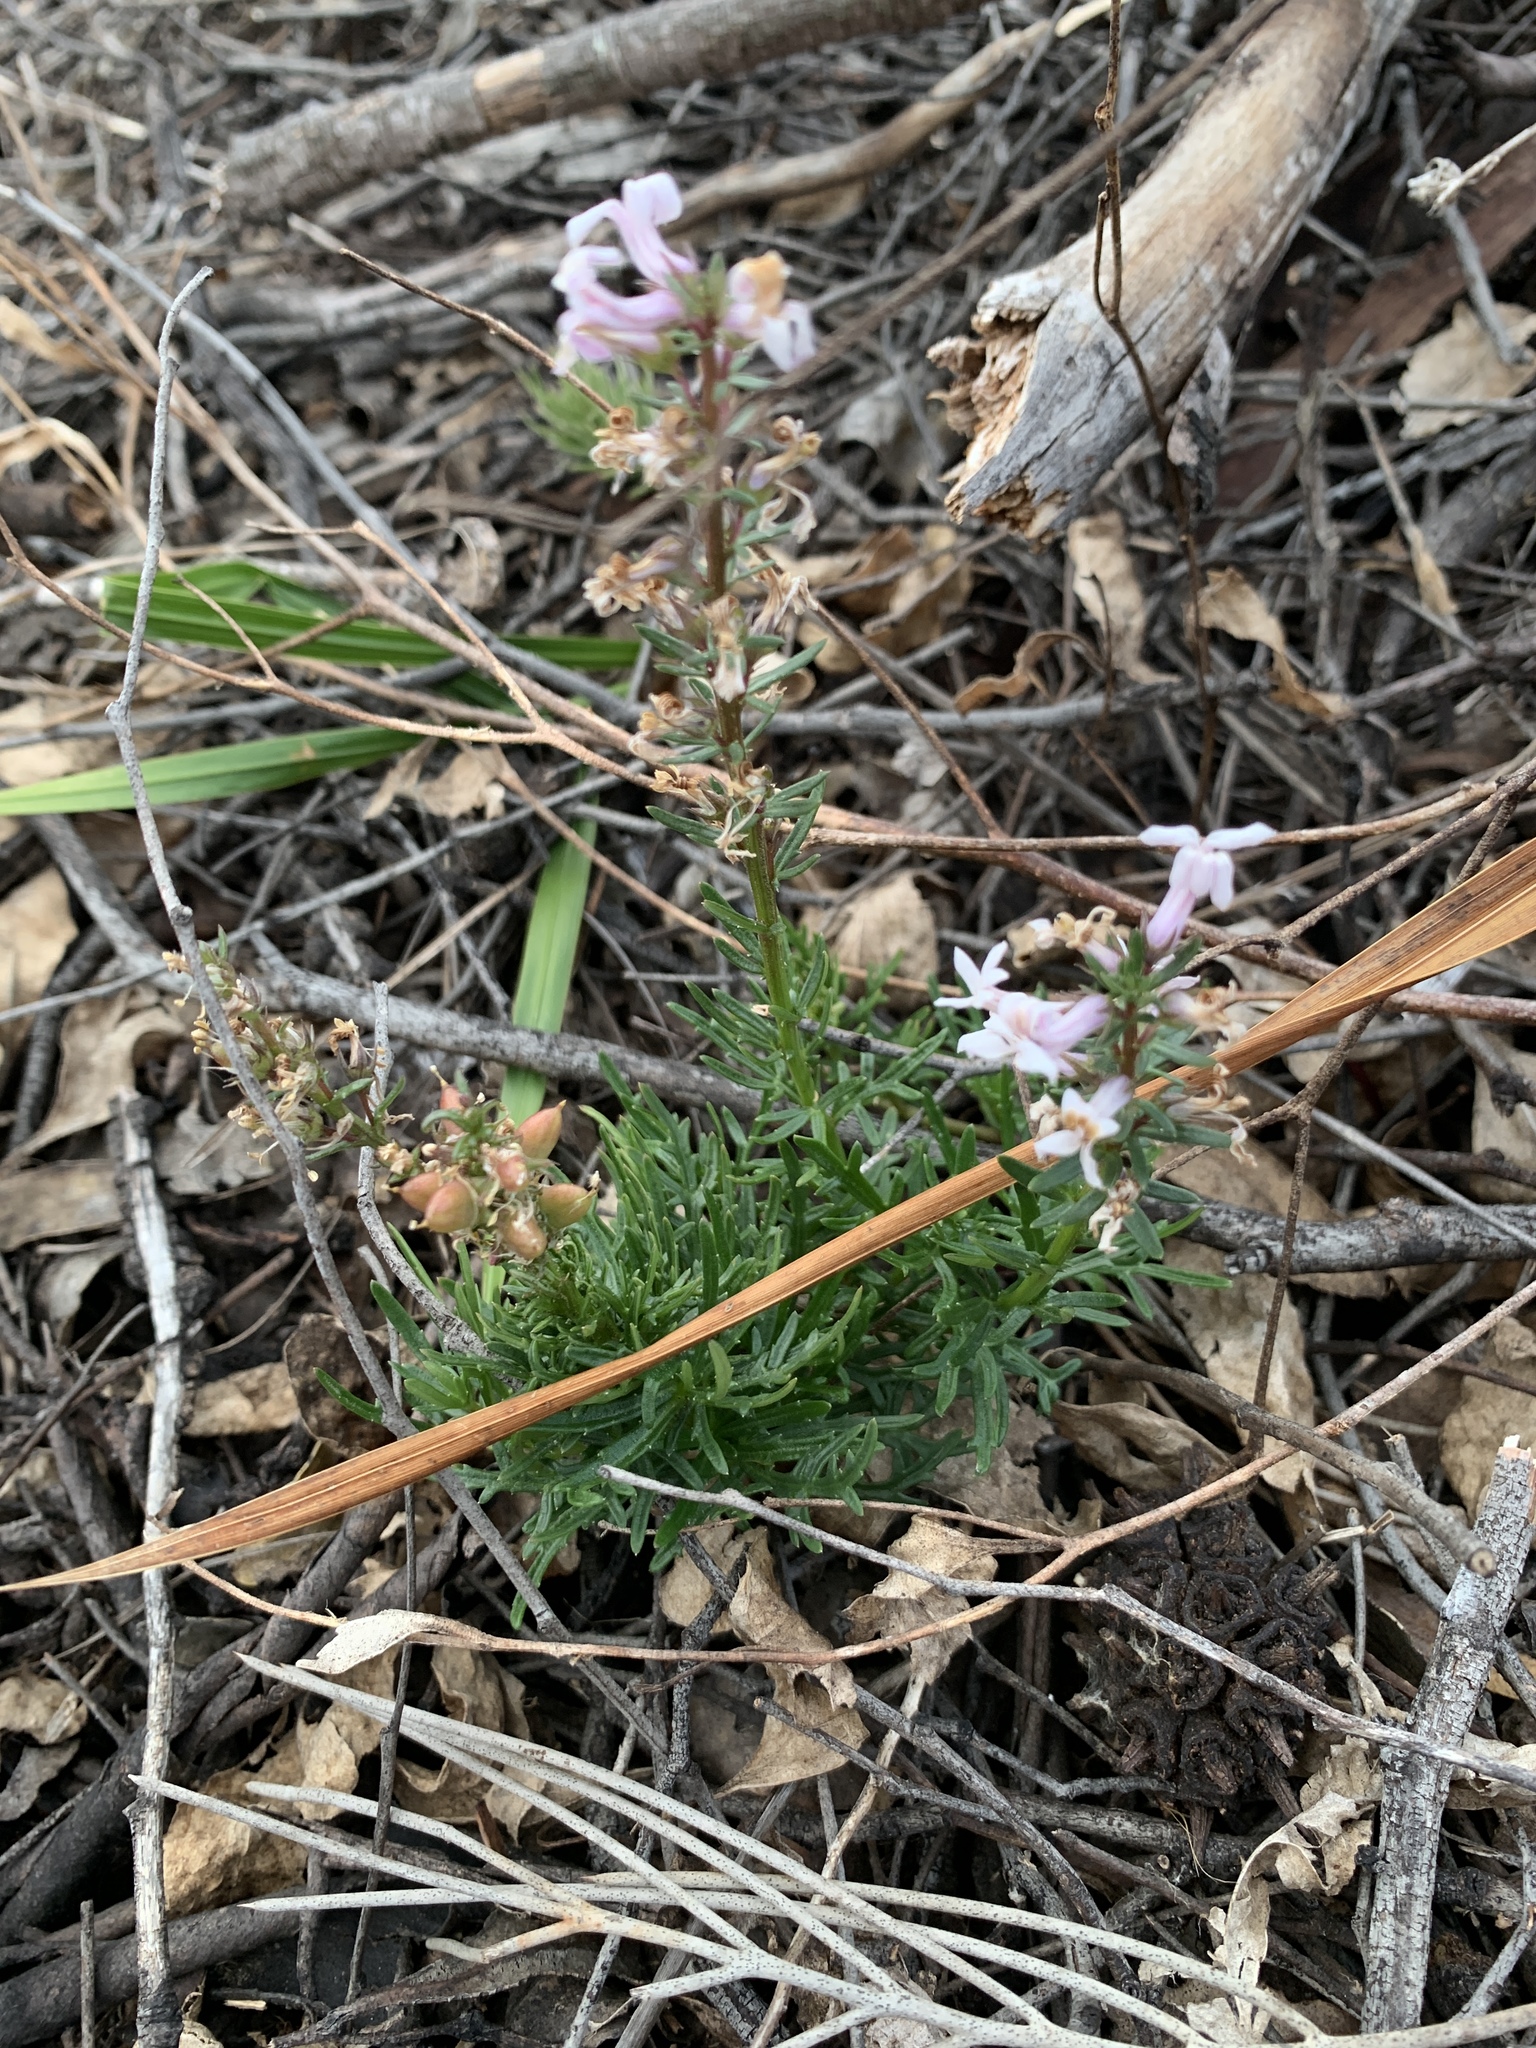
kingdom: Plantae
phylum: Tracheophyta
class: Magnoliopsida
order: Asterales
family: Campanulaceae
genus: Cyphia
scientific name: Cyphia bulbosa
